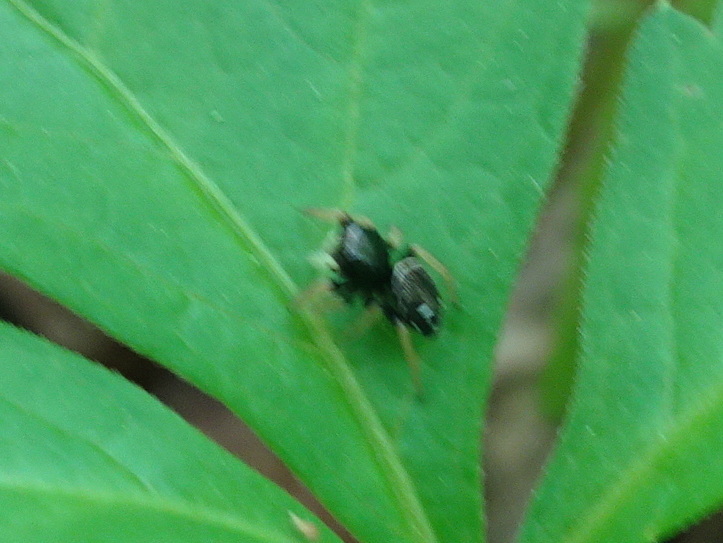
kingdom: Animalia
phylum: Arthropoda
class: Arachnida
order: Araneae
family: Salticidae
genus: Phidippus
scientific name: Phidippus whitmani
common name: Whitman's jumping spider
